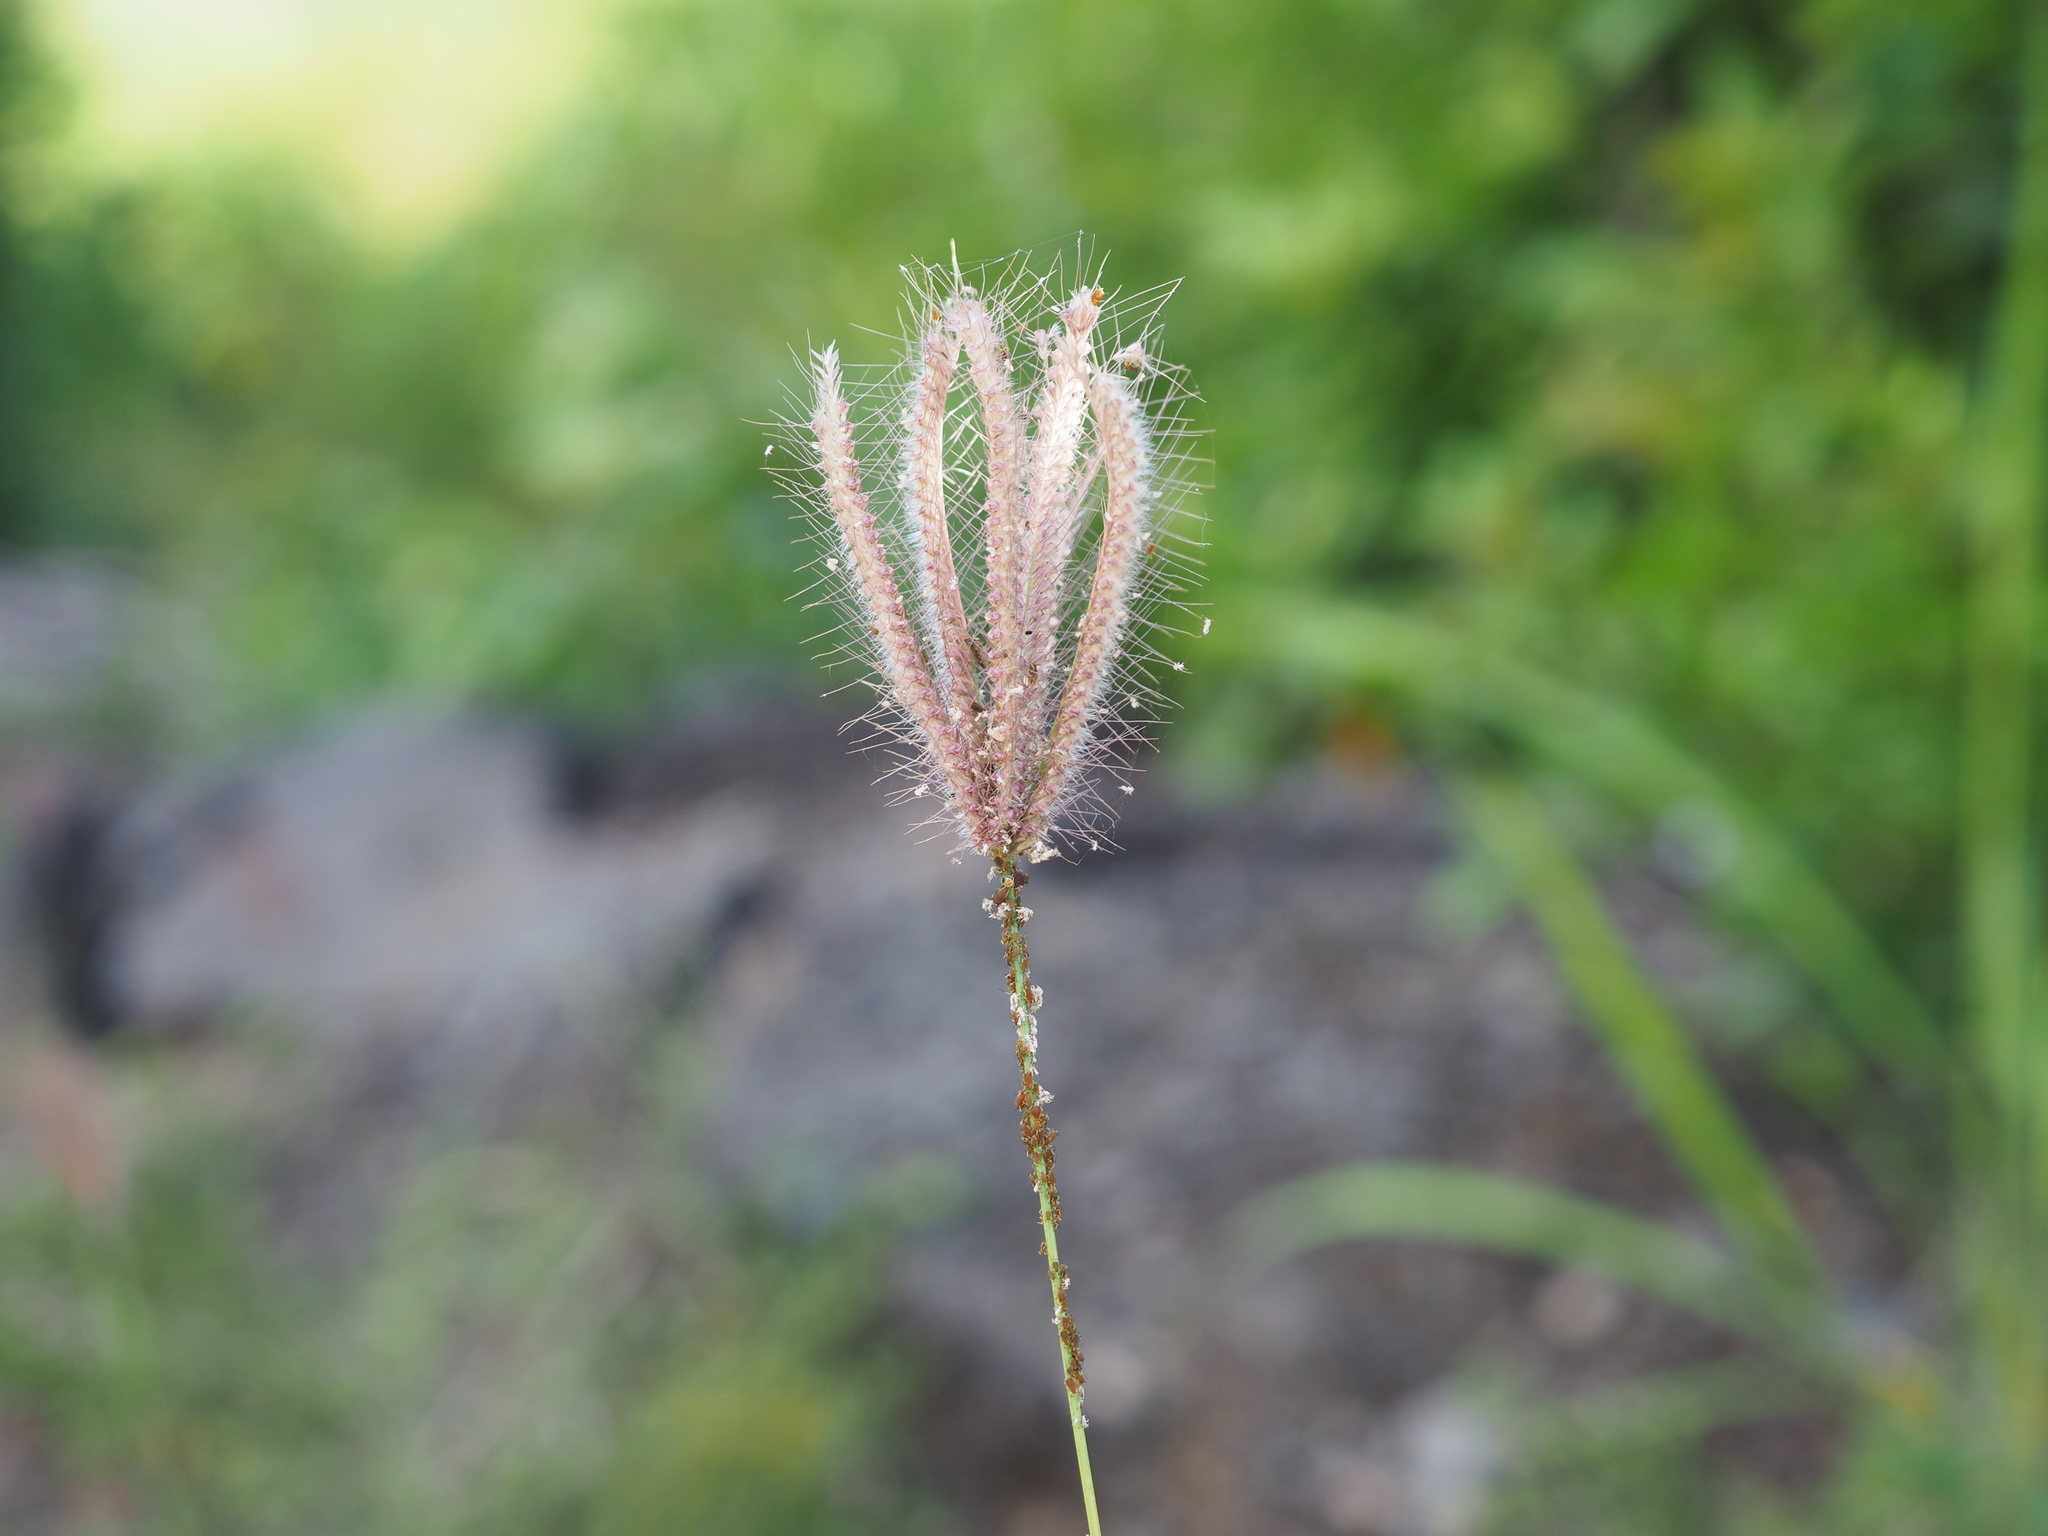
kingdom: Plantae
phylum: Tracheophyta
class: Liliopsida
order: Poales
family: Poaceae
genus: Chloris
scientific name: Chloris barbata
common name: Swollen fingergrass
